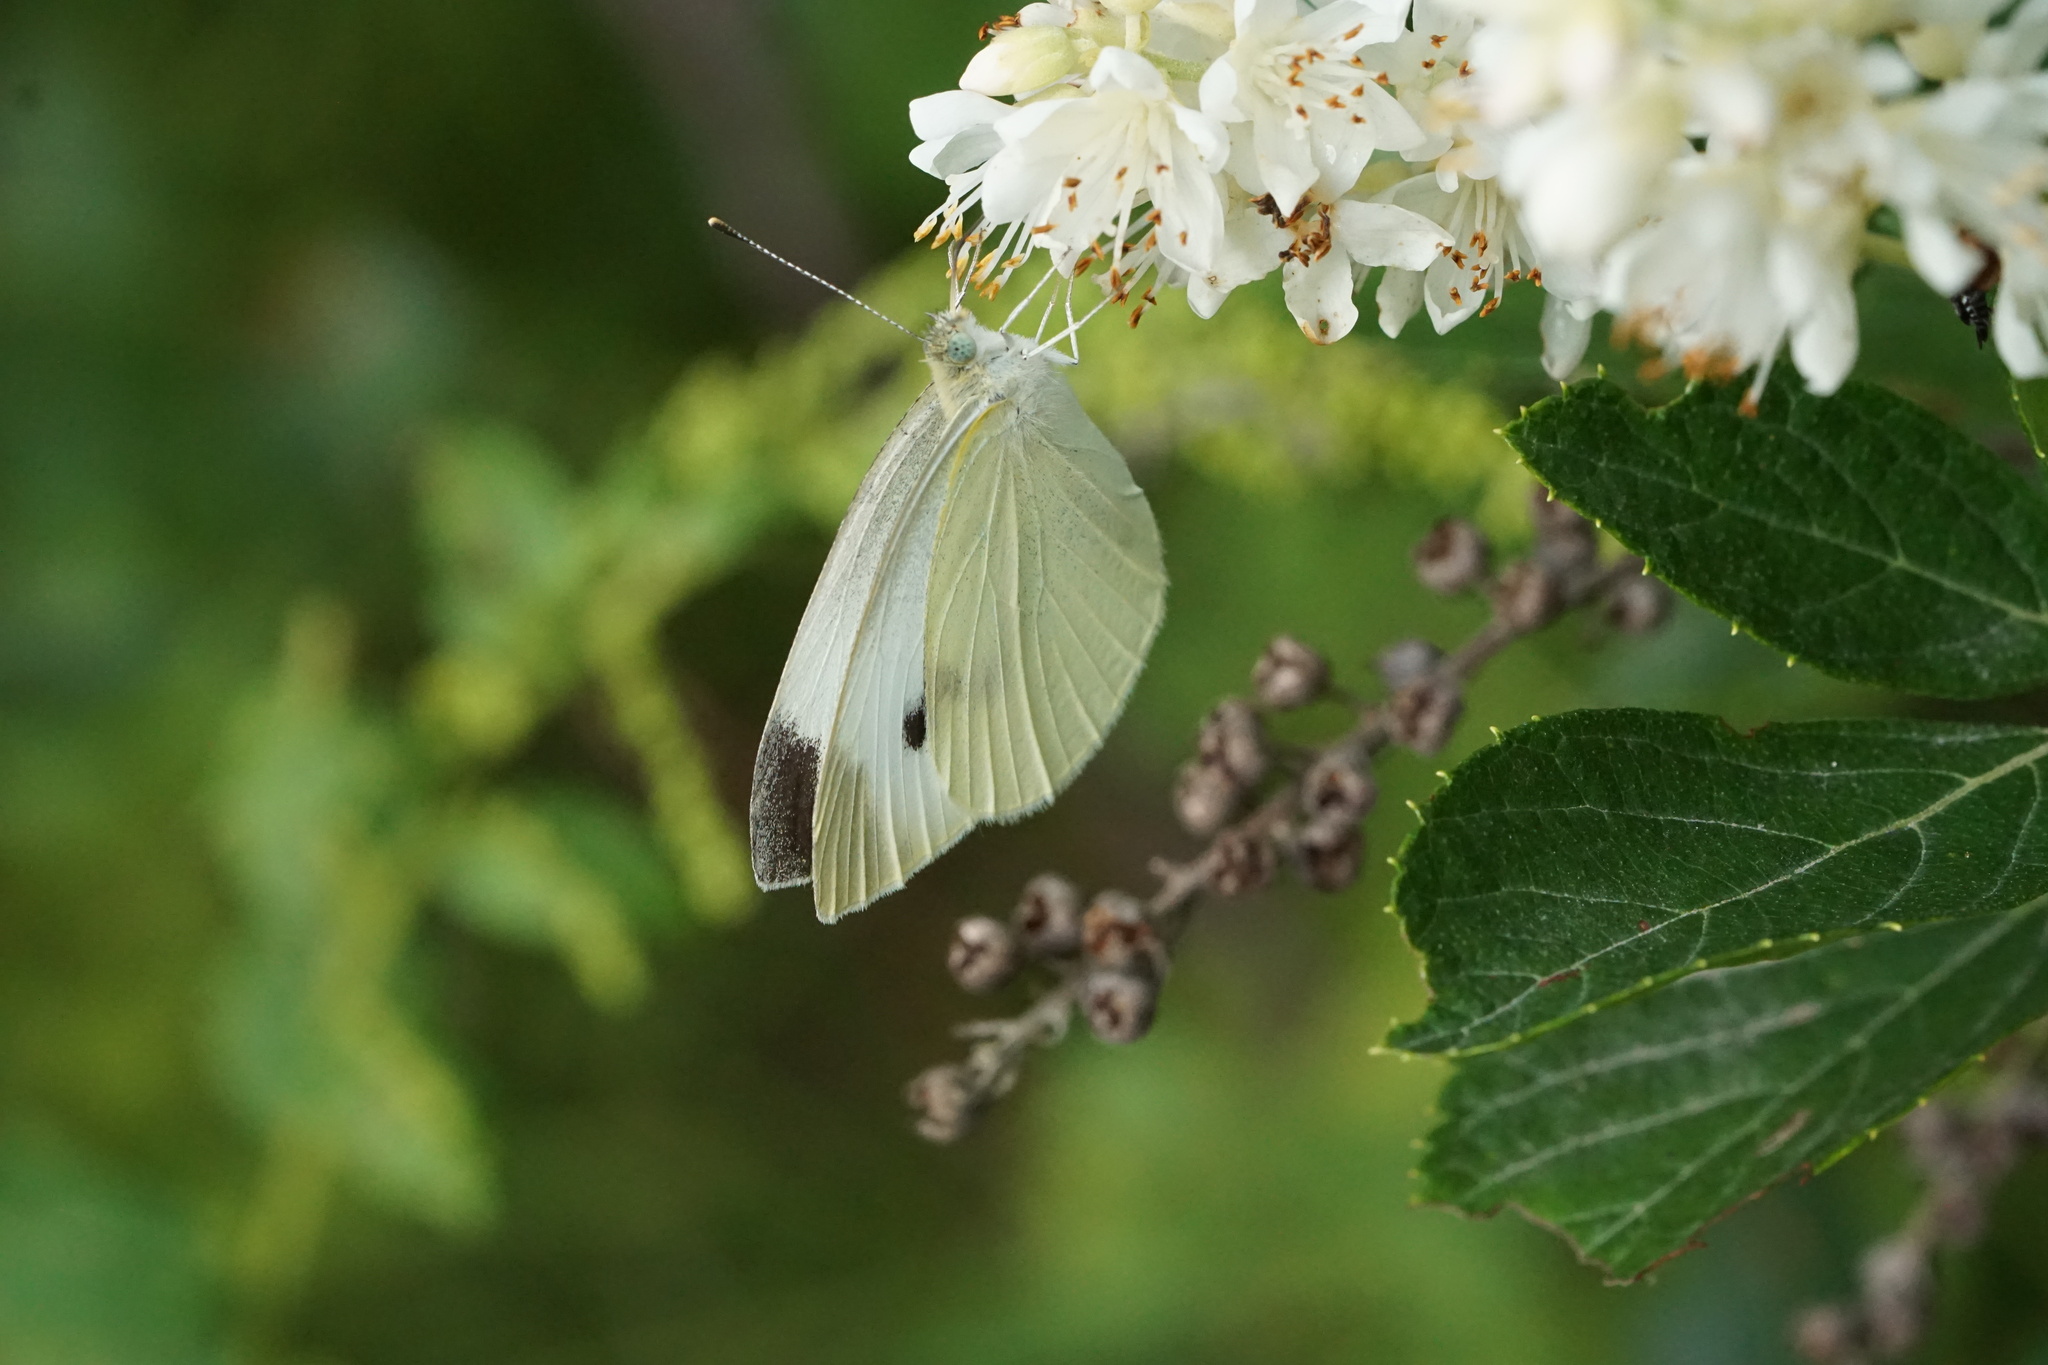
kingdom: Animalia
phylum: Arthropoda
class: Insecta
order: Lepidoptera
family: Pieridae
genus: Pieris
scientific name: Pieris rapae
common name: Small white
